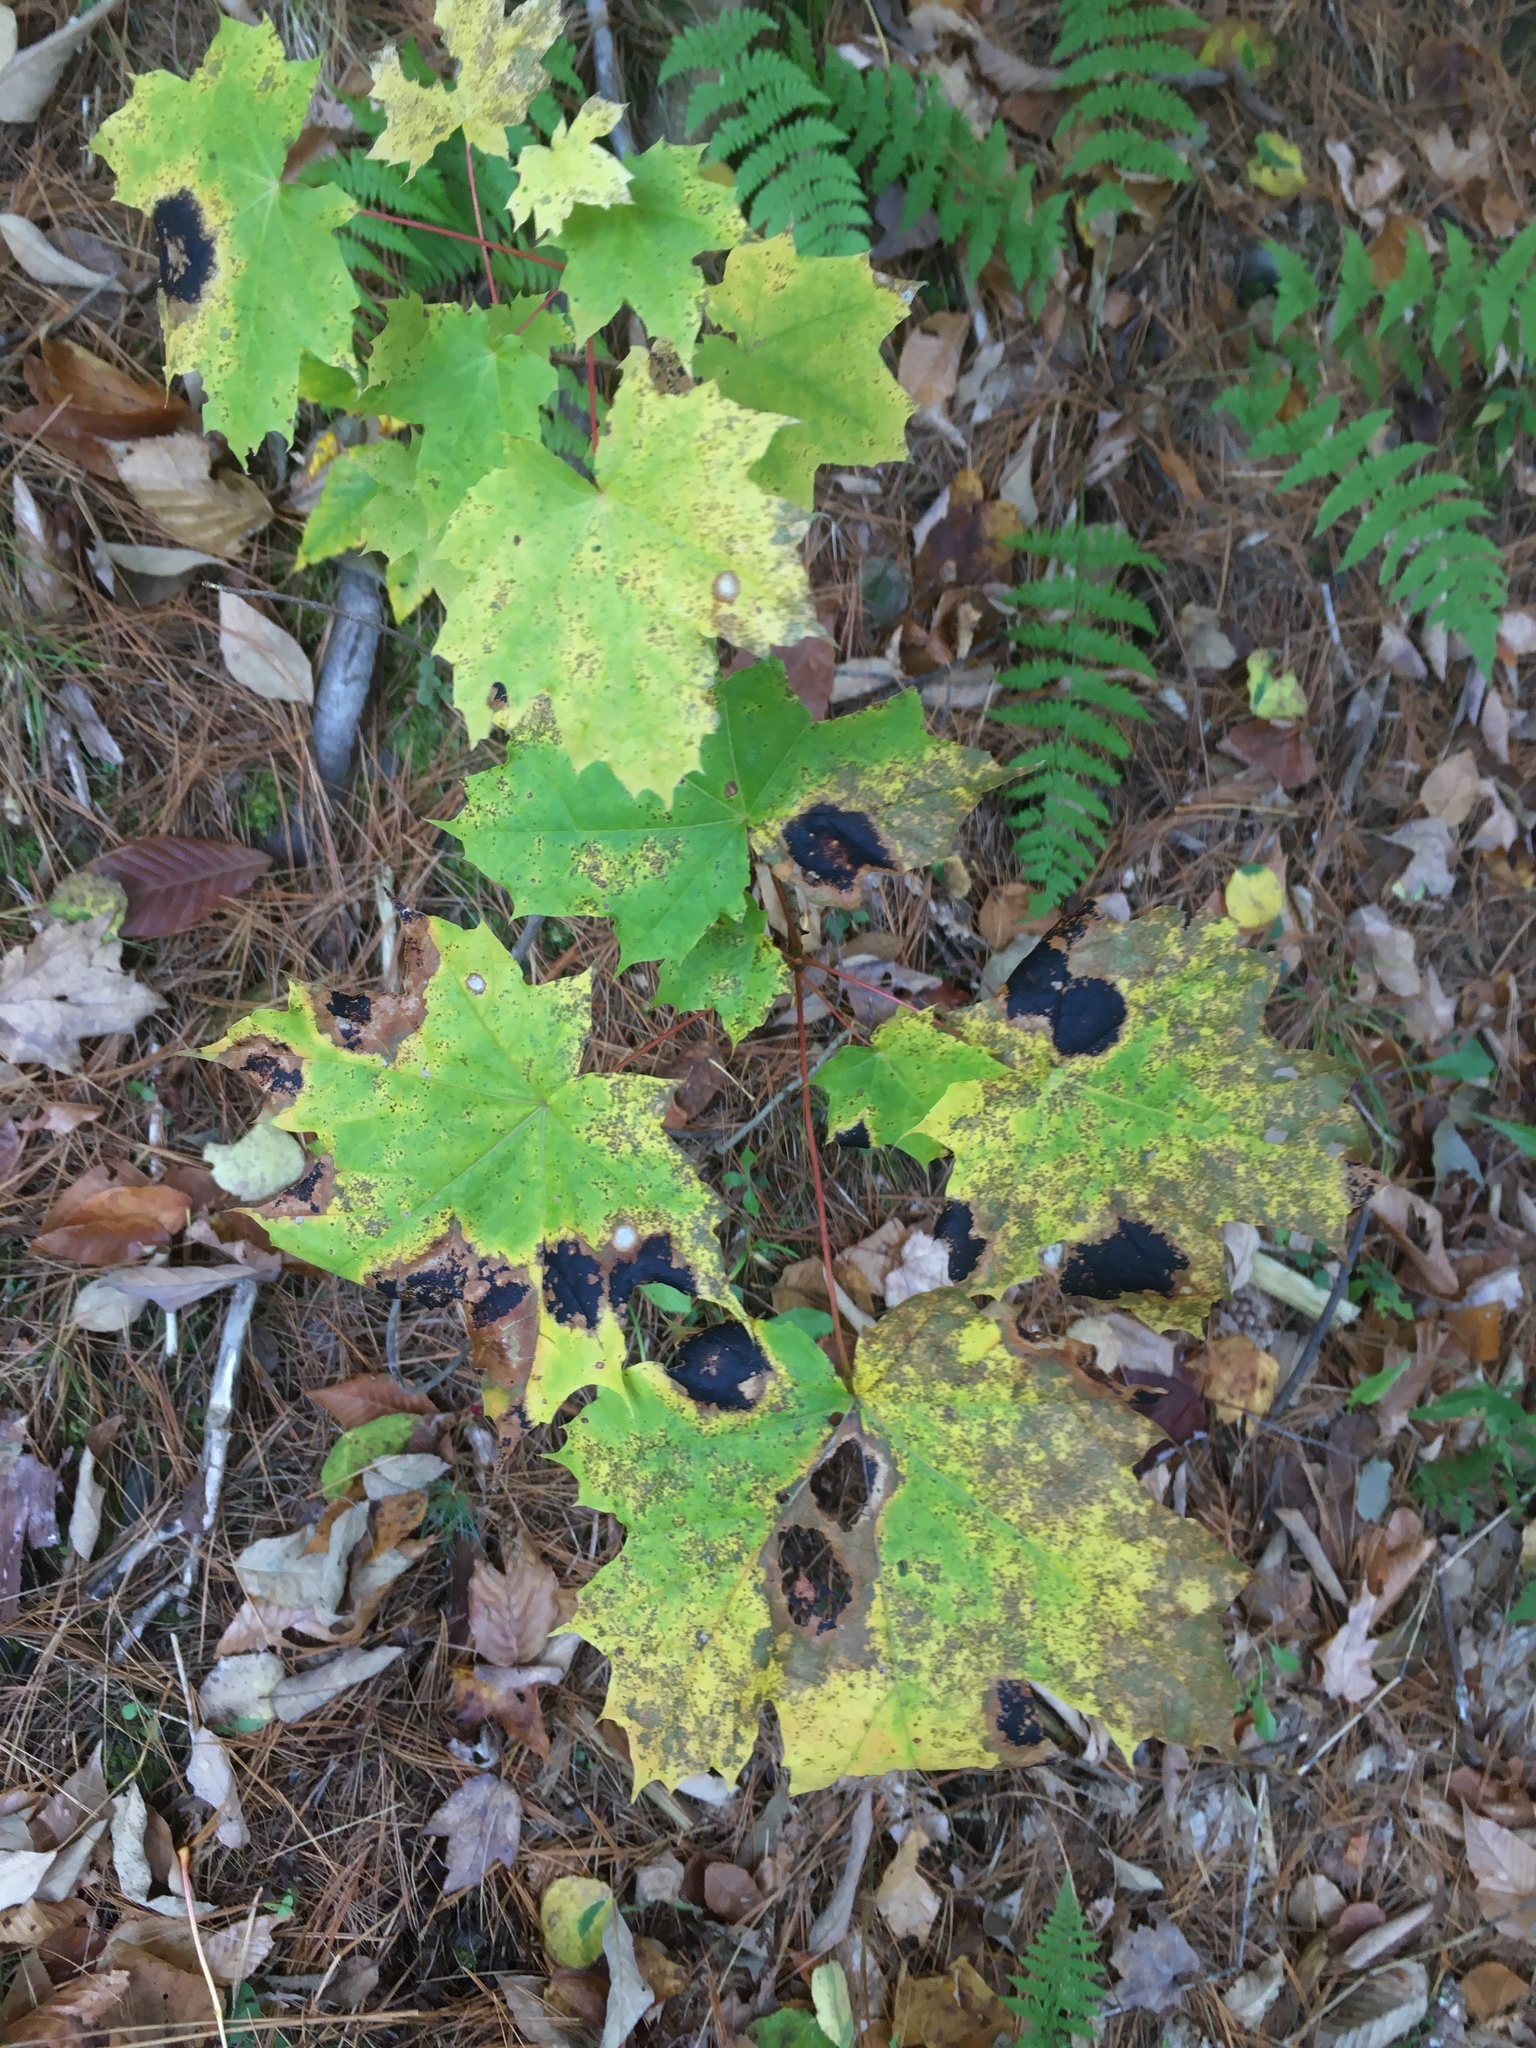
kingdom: Fungi
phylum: Ascomycota
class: Leotiomycetes
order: Rhytismatales
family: Rhytismataceae
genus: Rhytisma
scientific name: Rhytisma acerinum
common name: European tar spot
